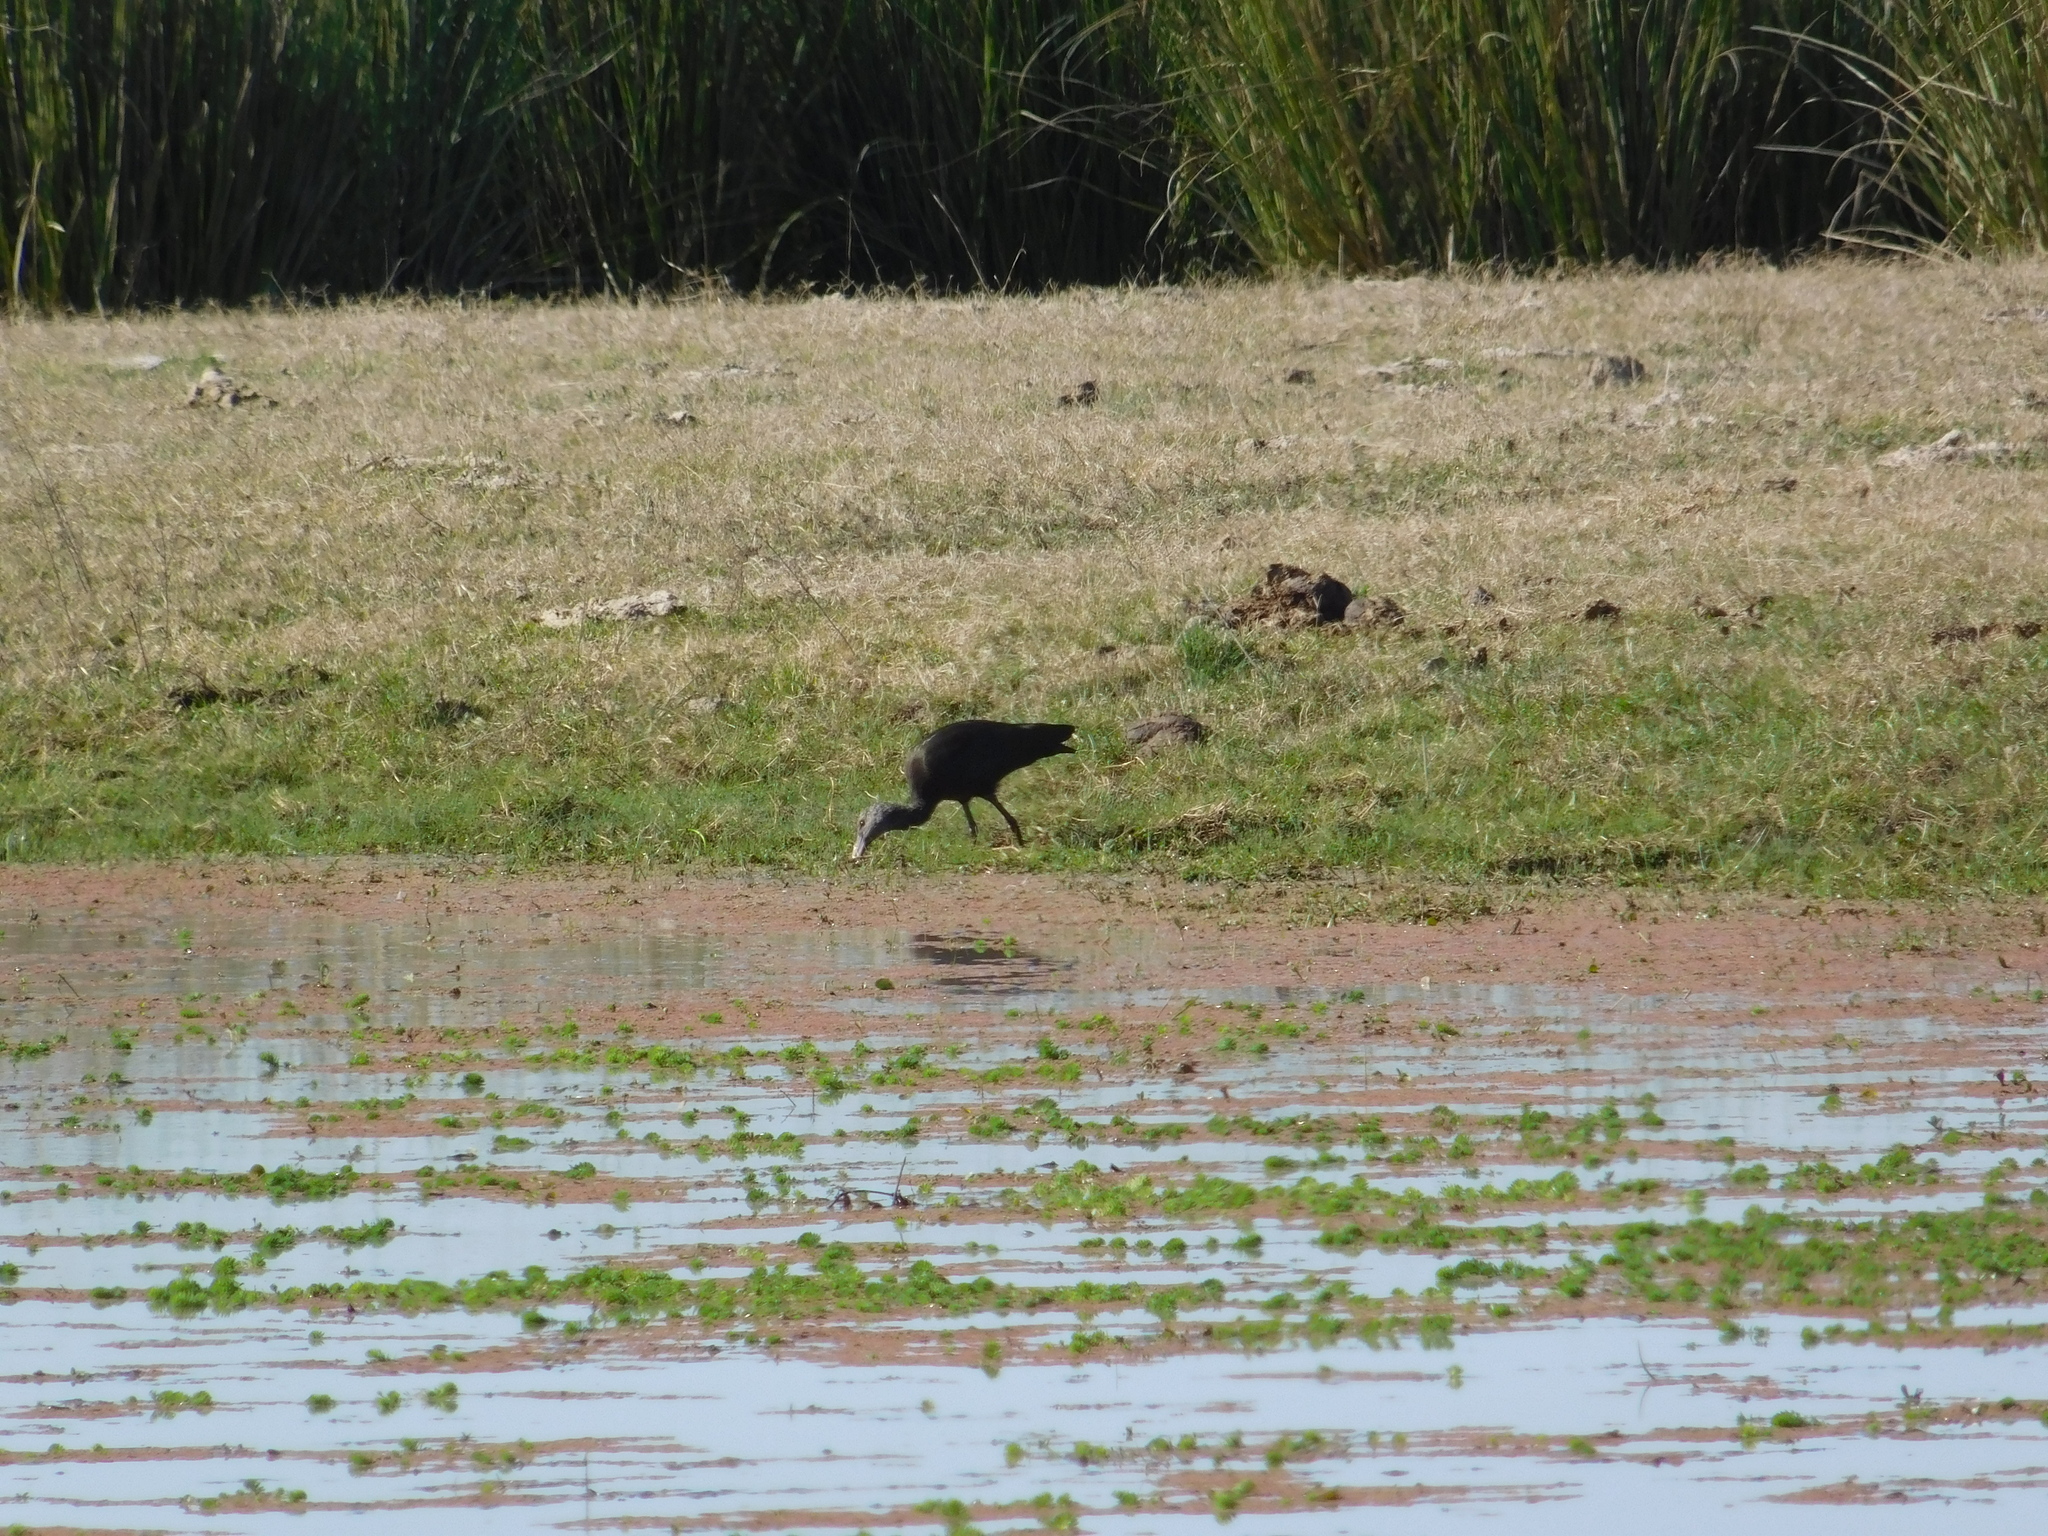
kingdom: Animalia
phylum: Chordata
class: Aves
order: Pelecaniformes
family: Threskiornithidae
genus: Plegadis
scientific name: Plegadis chihi
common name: White-faced ibis
